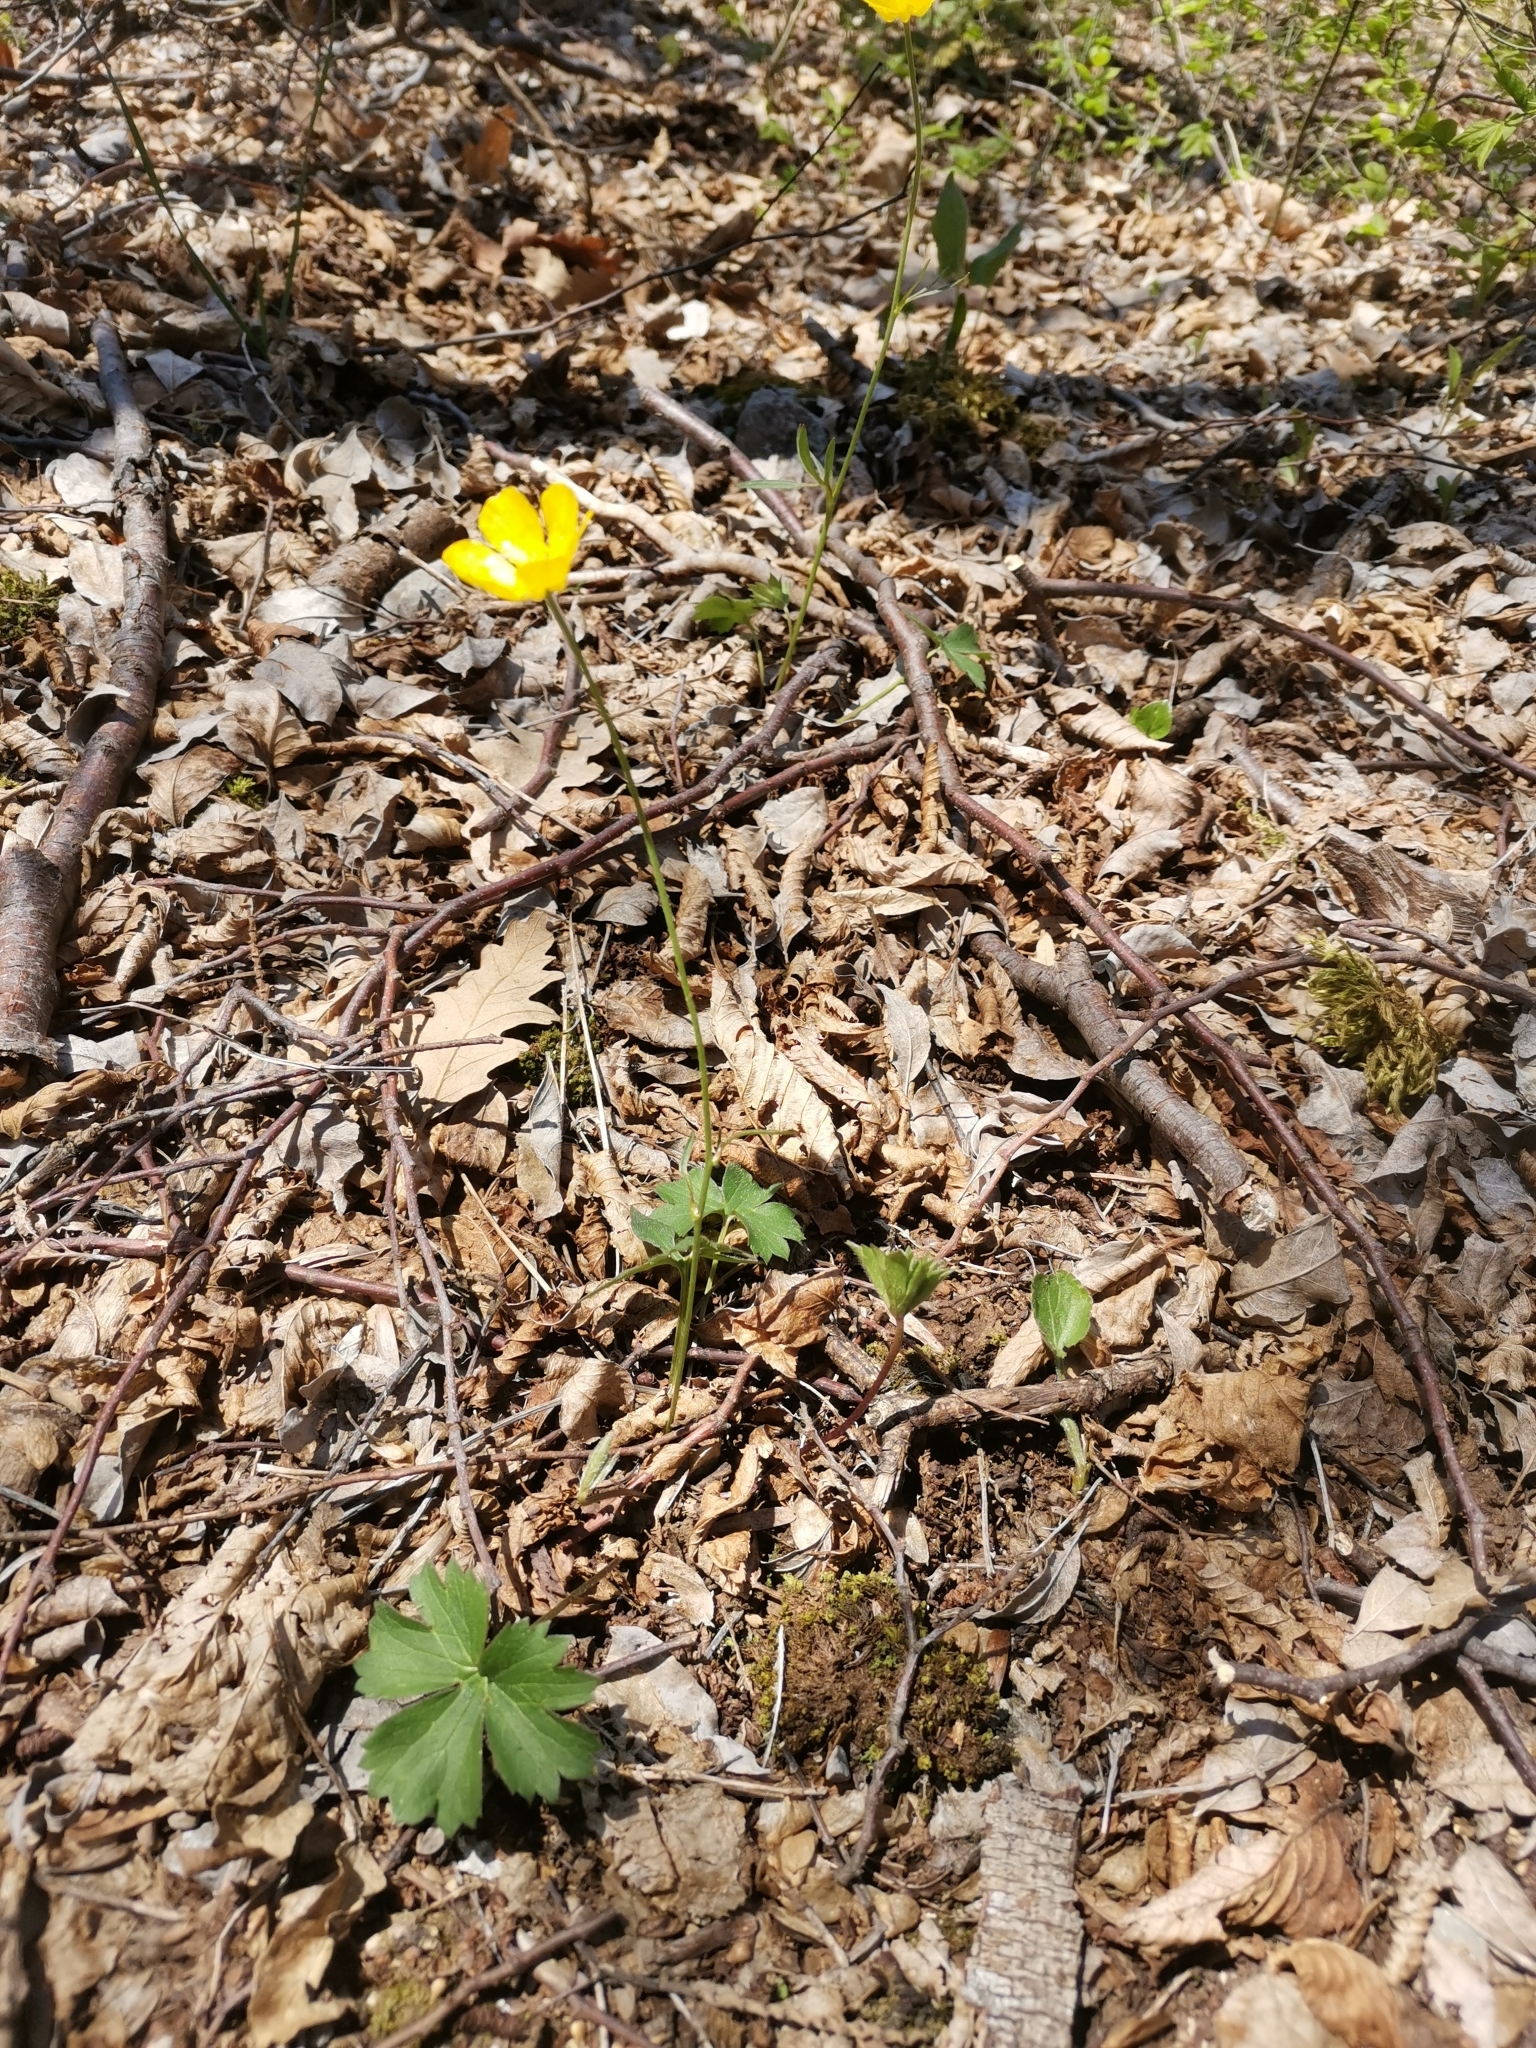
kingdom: Plantae
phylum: Tracheophyta
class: Magnoliopsida
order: Ranunculales
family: Ranunculaceae
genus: Ranunculus
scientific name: Ranunculus
